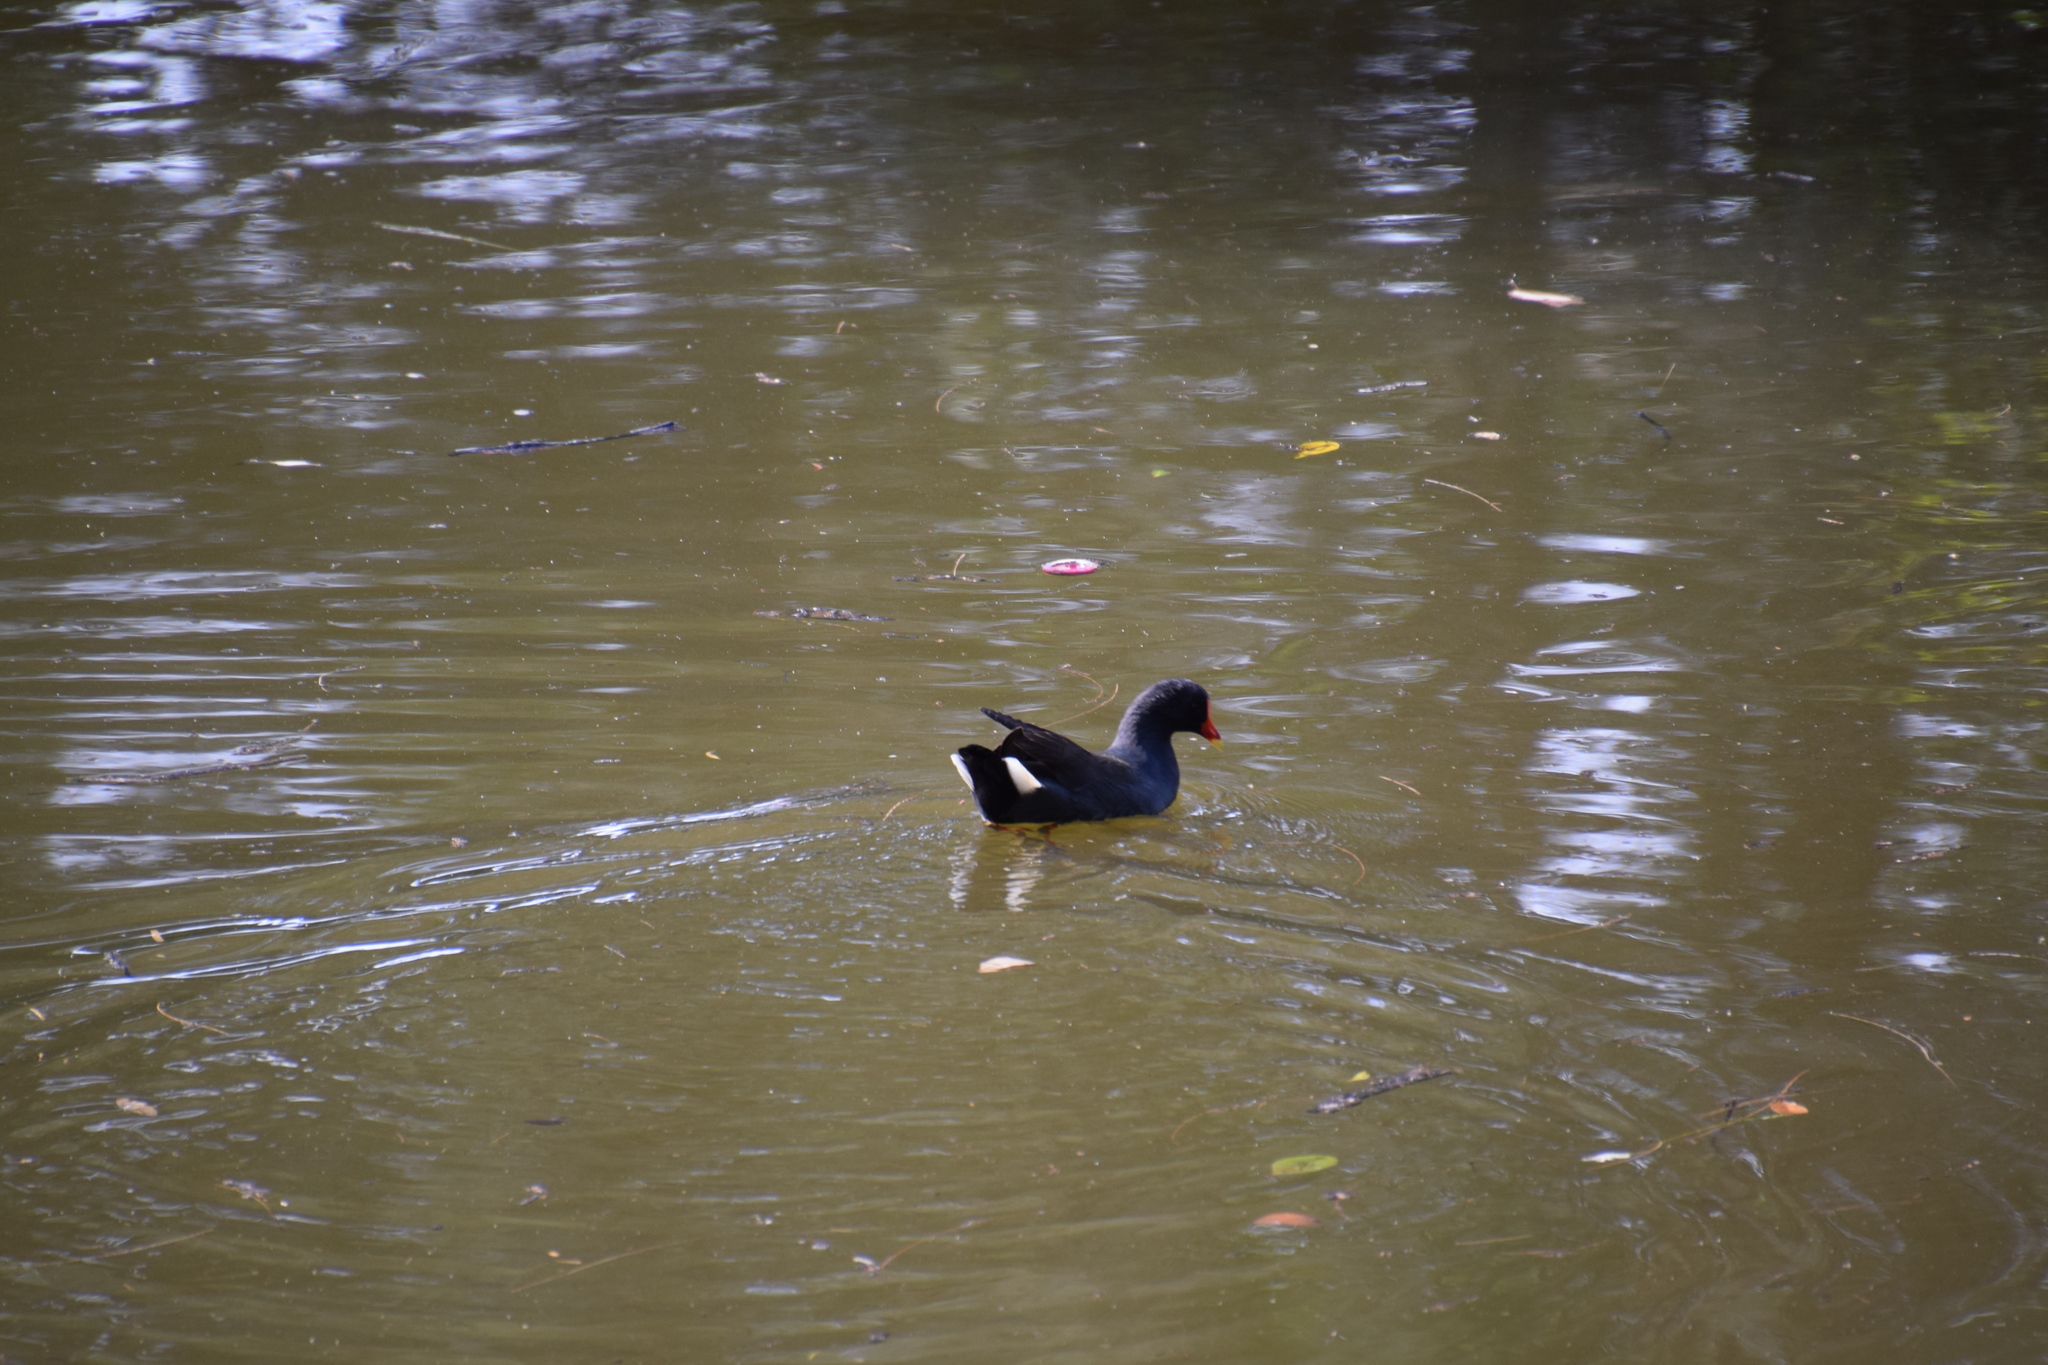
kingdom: Animalia
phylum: Chordata
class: Aves
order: Gruiformes
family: Rallidae
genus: Gallinula
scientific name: Gallinula tenebrosa
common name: Dusky moorhen
